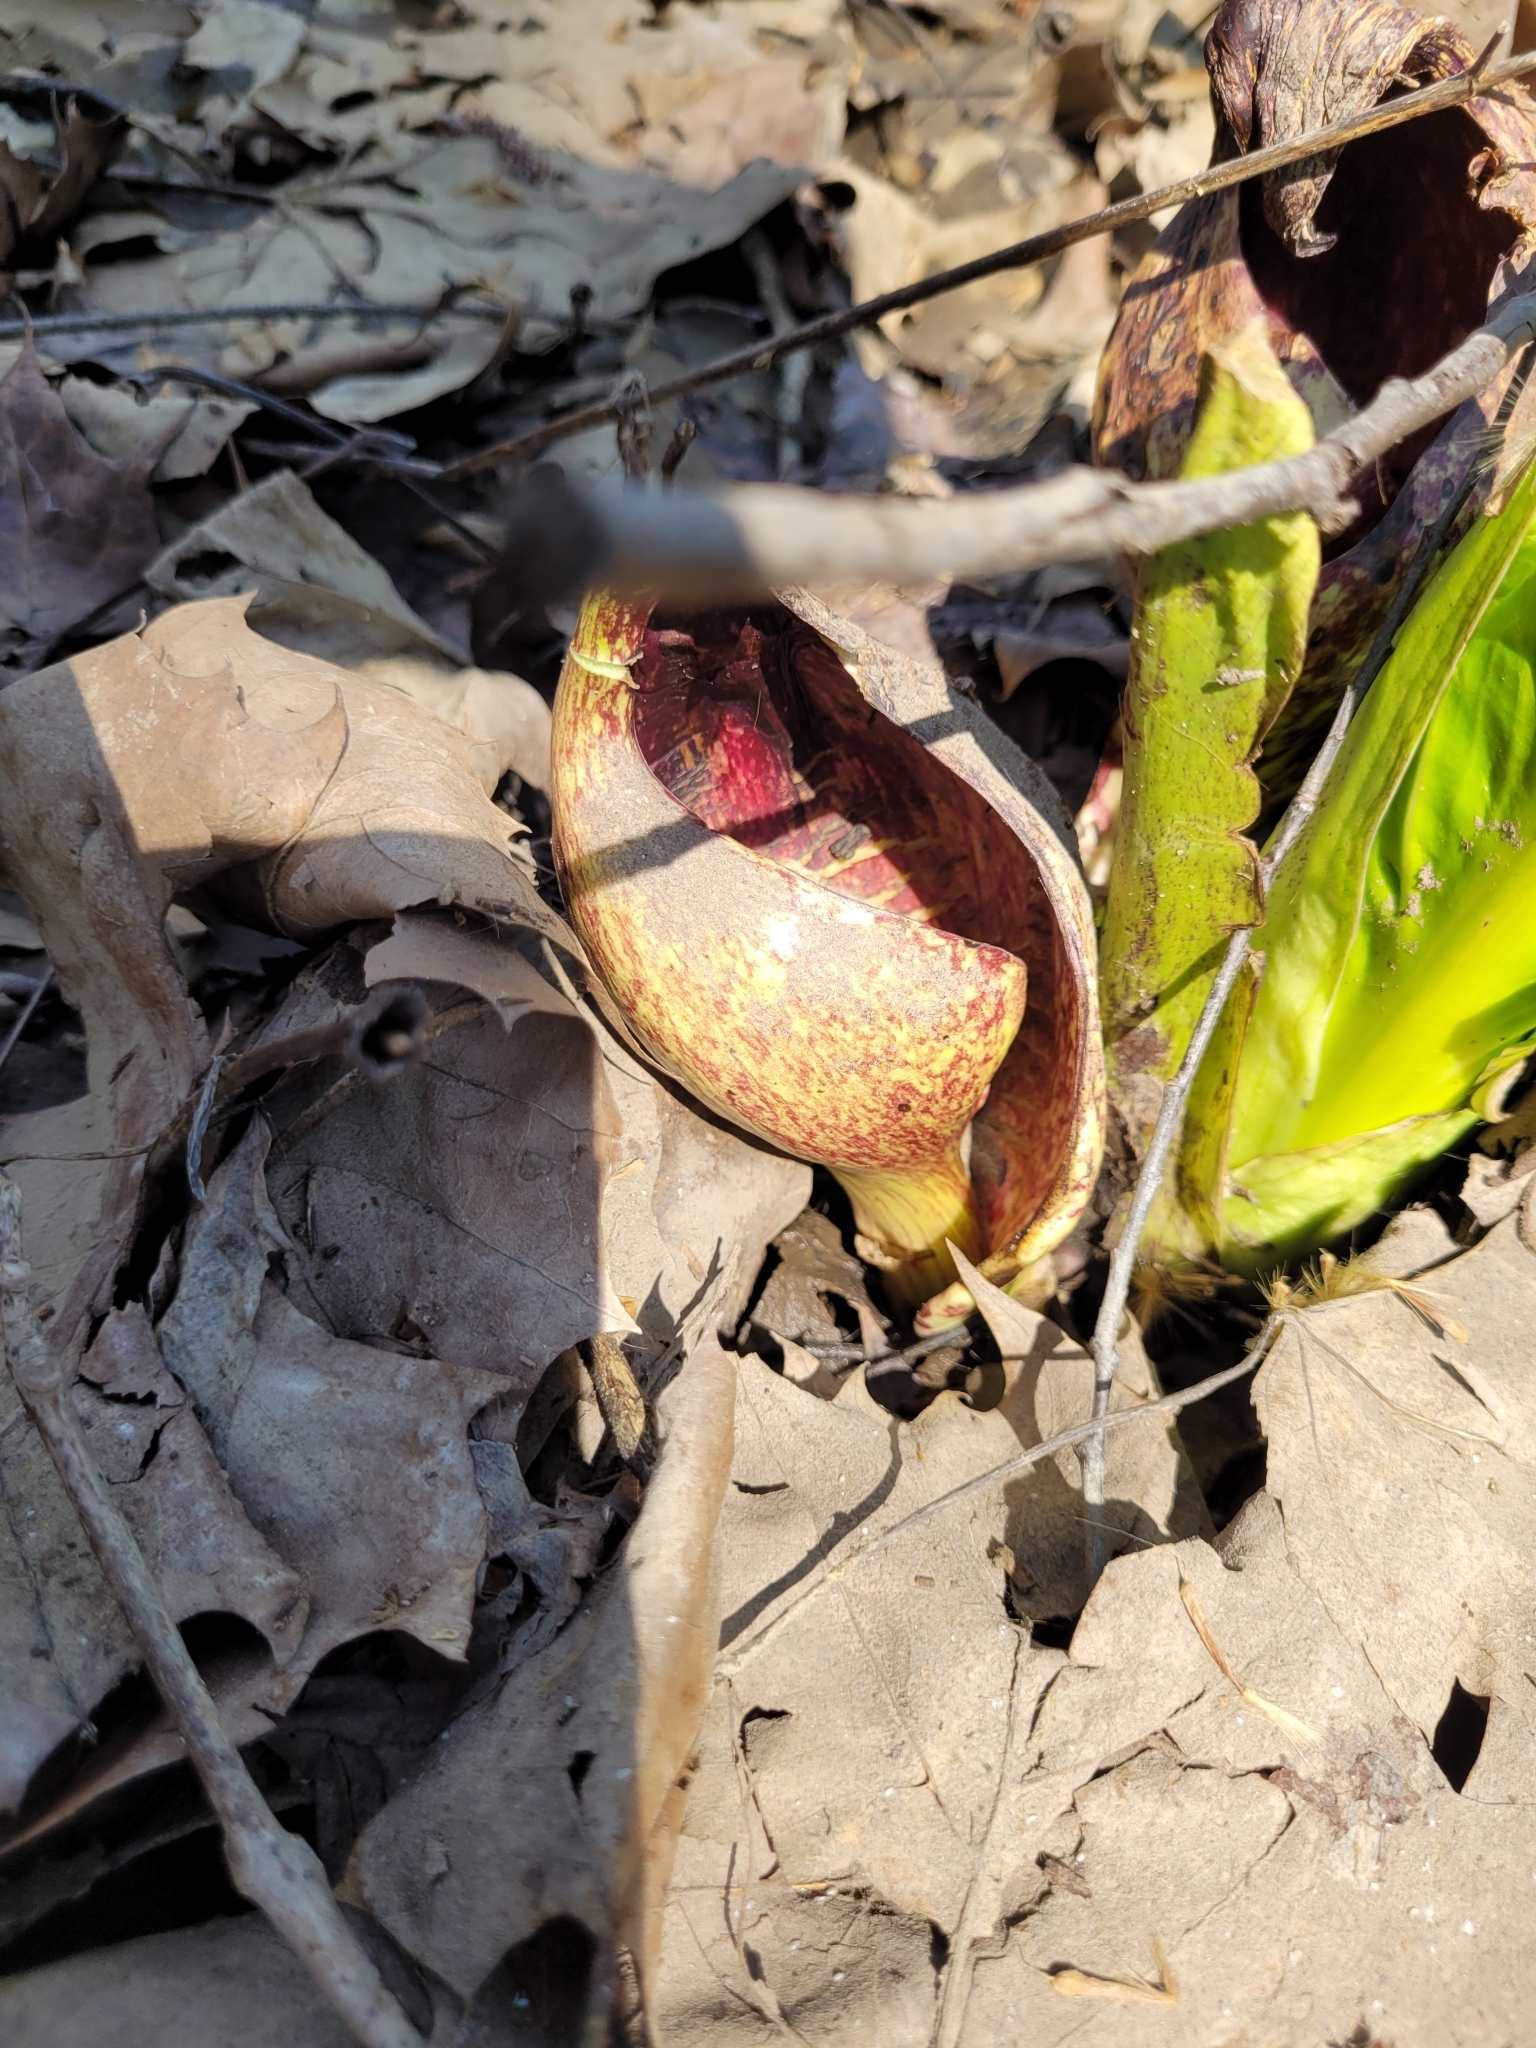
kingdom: Plantae
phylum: Tracheophyta
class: Liliopsida
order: Alismatales
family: Araceae
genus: Symplocarpus
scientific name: Symplocarpus foetidus
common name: Eastern skunk cabbage
